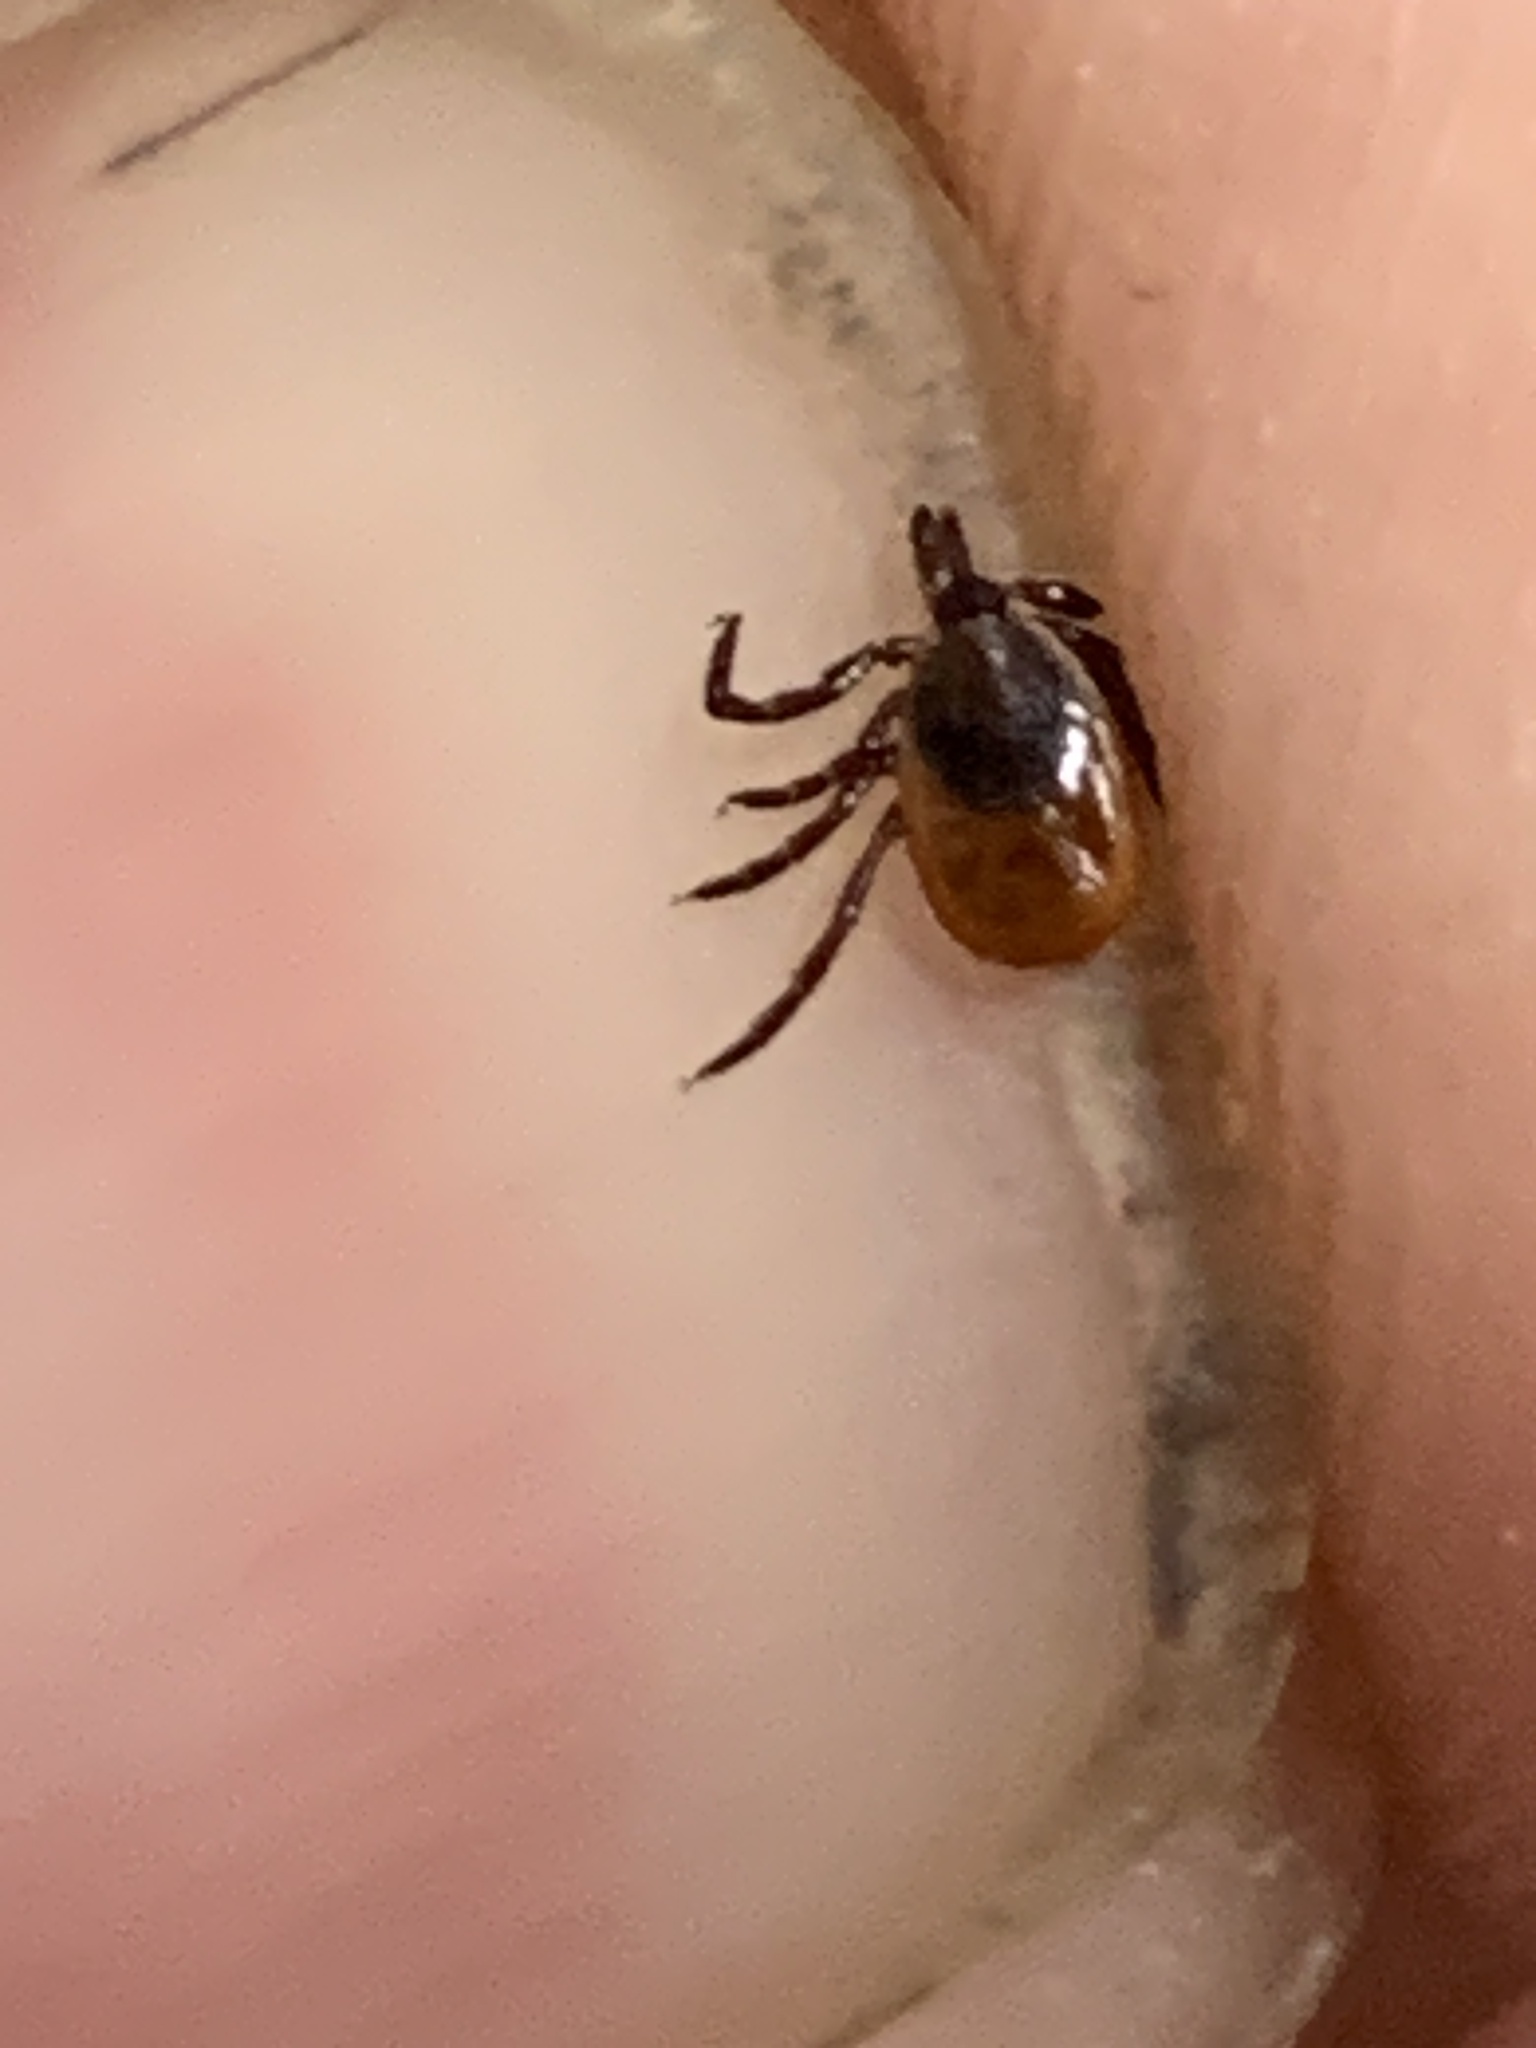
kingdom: Animalia
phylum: Arthropoda
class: Arachnida
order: Ixodida
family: Ixodidae
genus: Ixodes
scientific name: Ixodes scapularis
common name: Black legged tick
